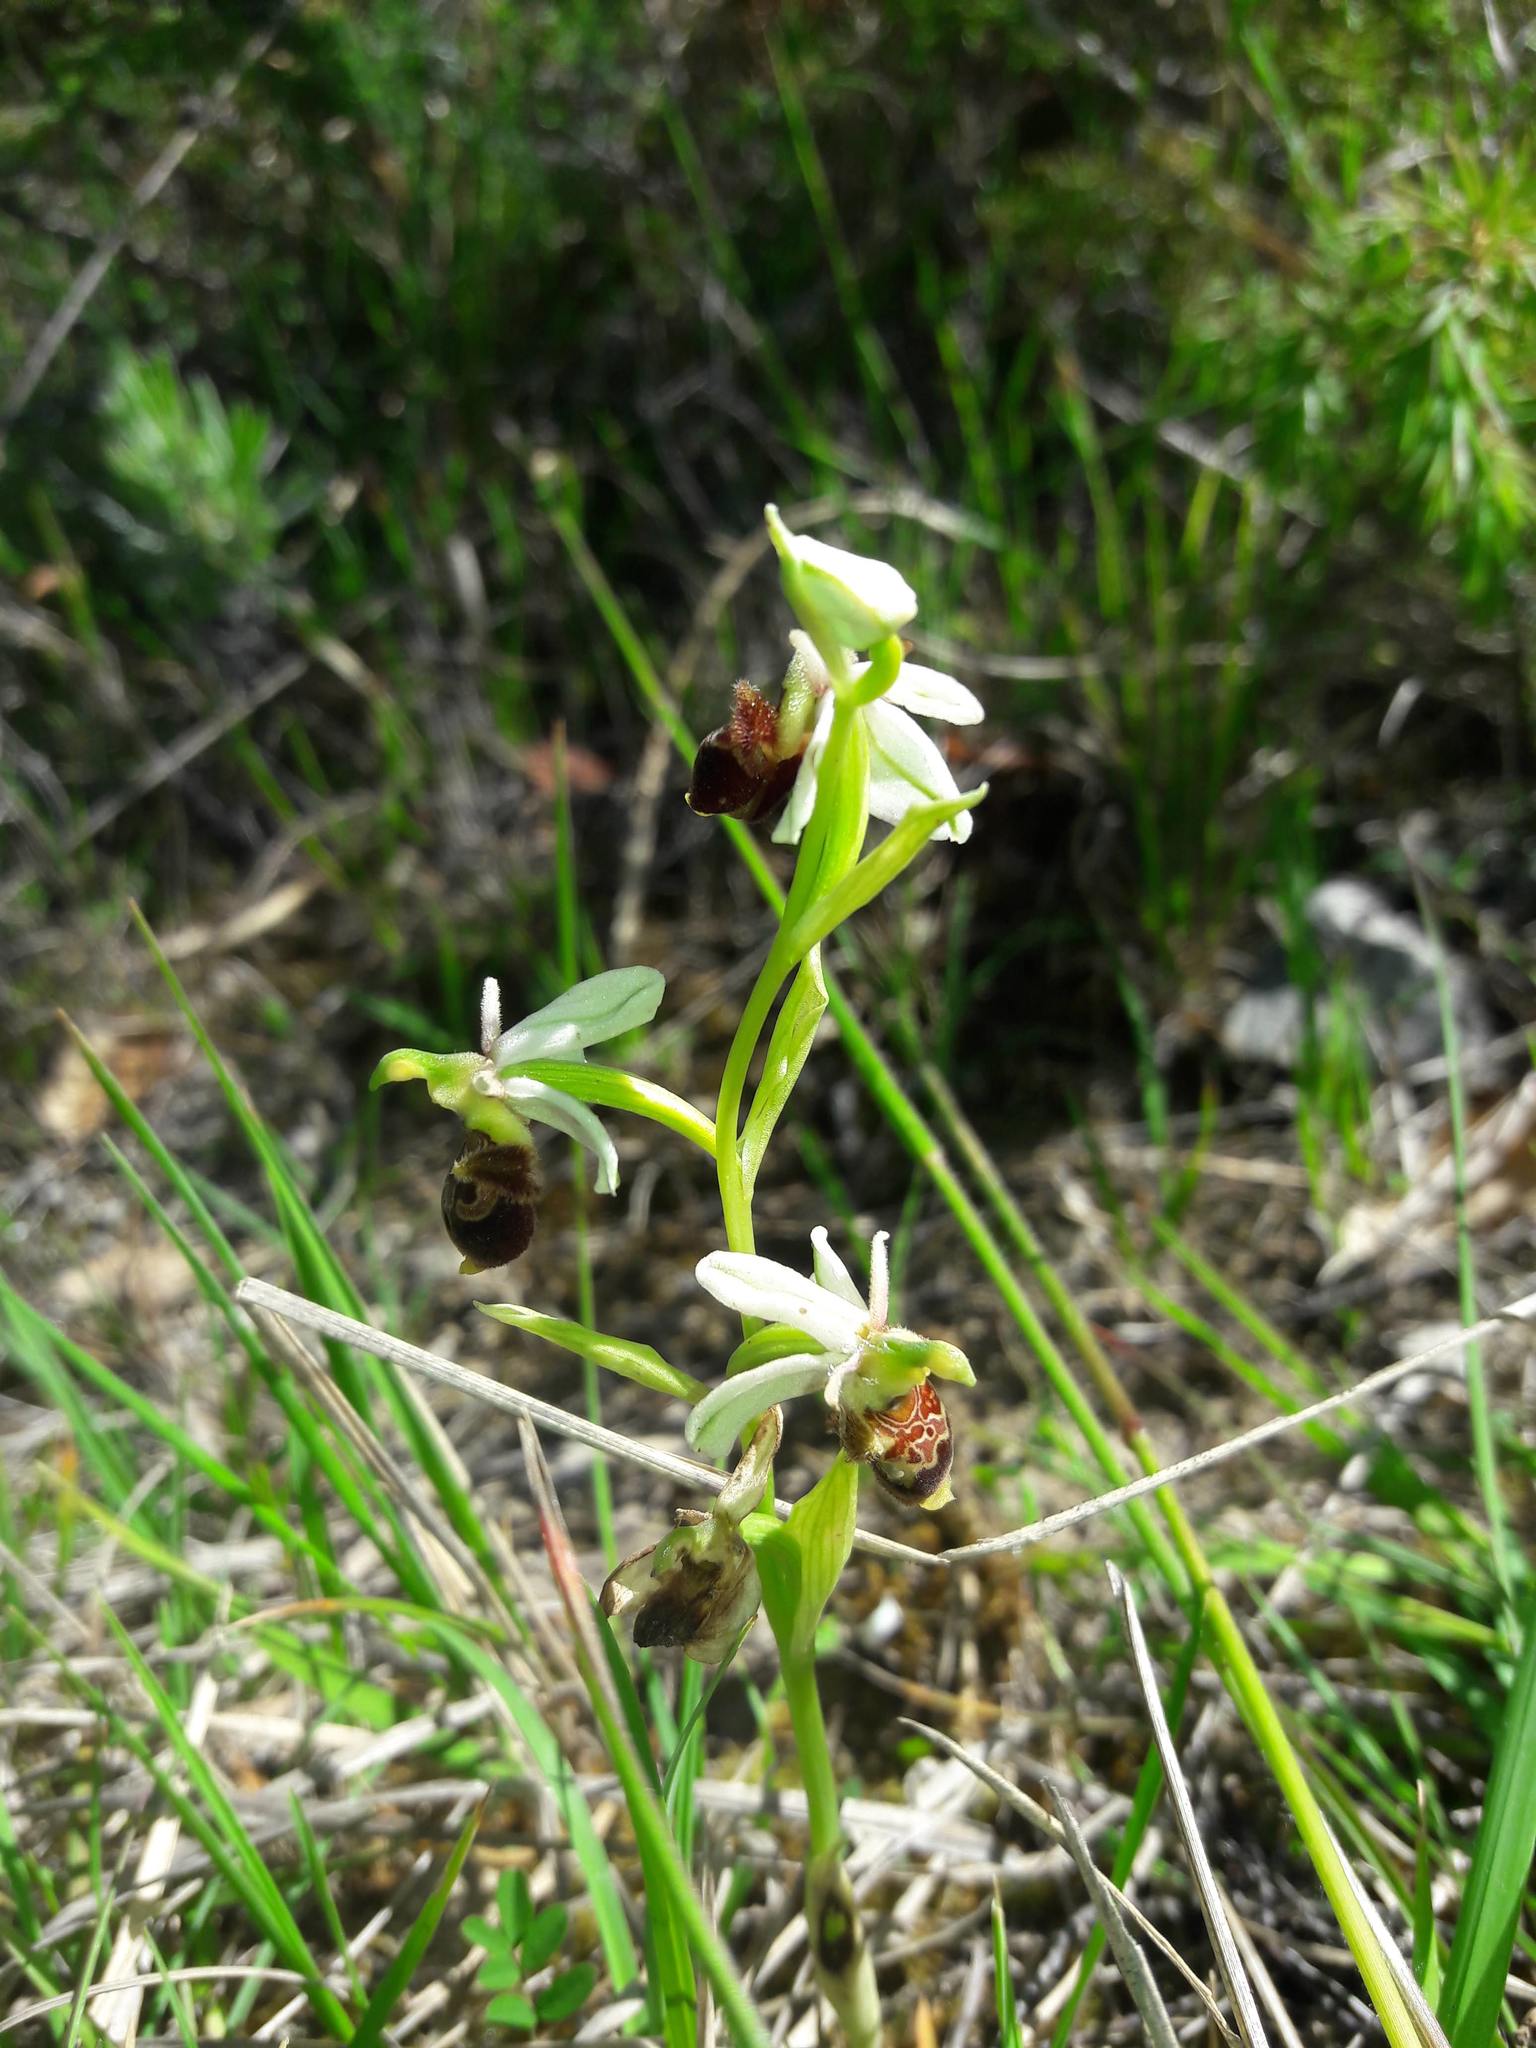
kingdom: Plantae
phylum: Tracheophyta
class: Liliopsida
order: Asparagales
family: Orchidaceae
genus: Ophrys
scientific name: Ophrys scolopax
